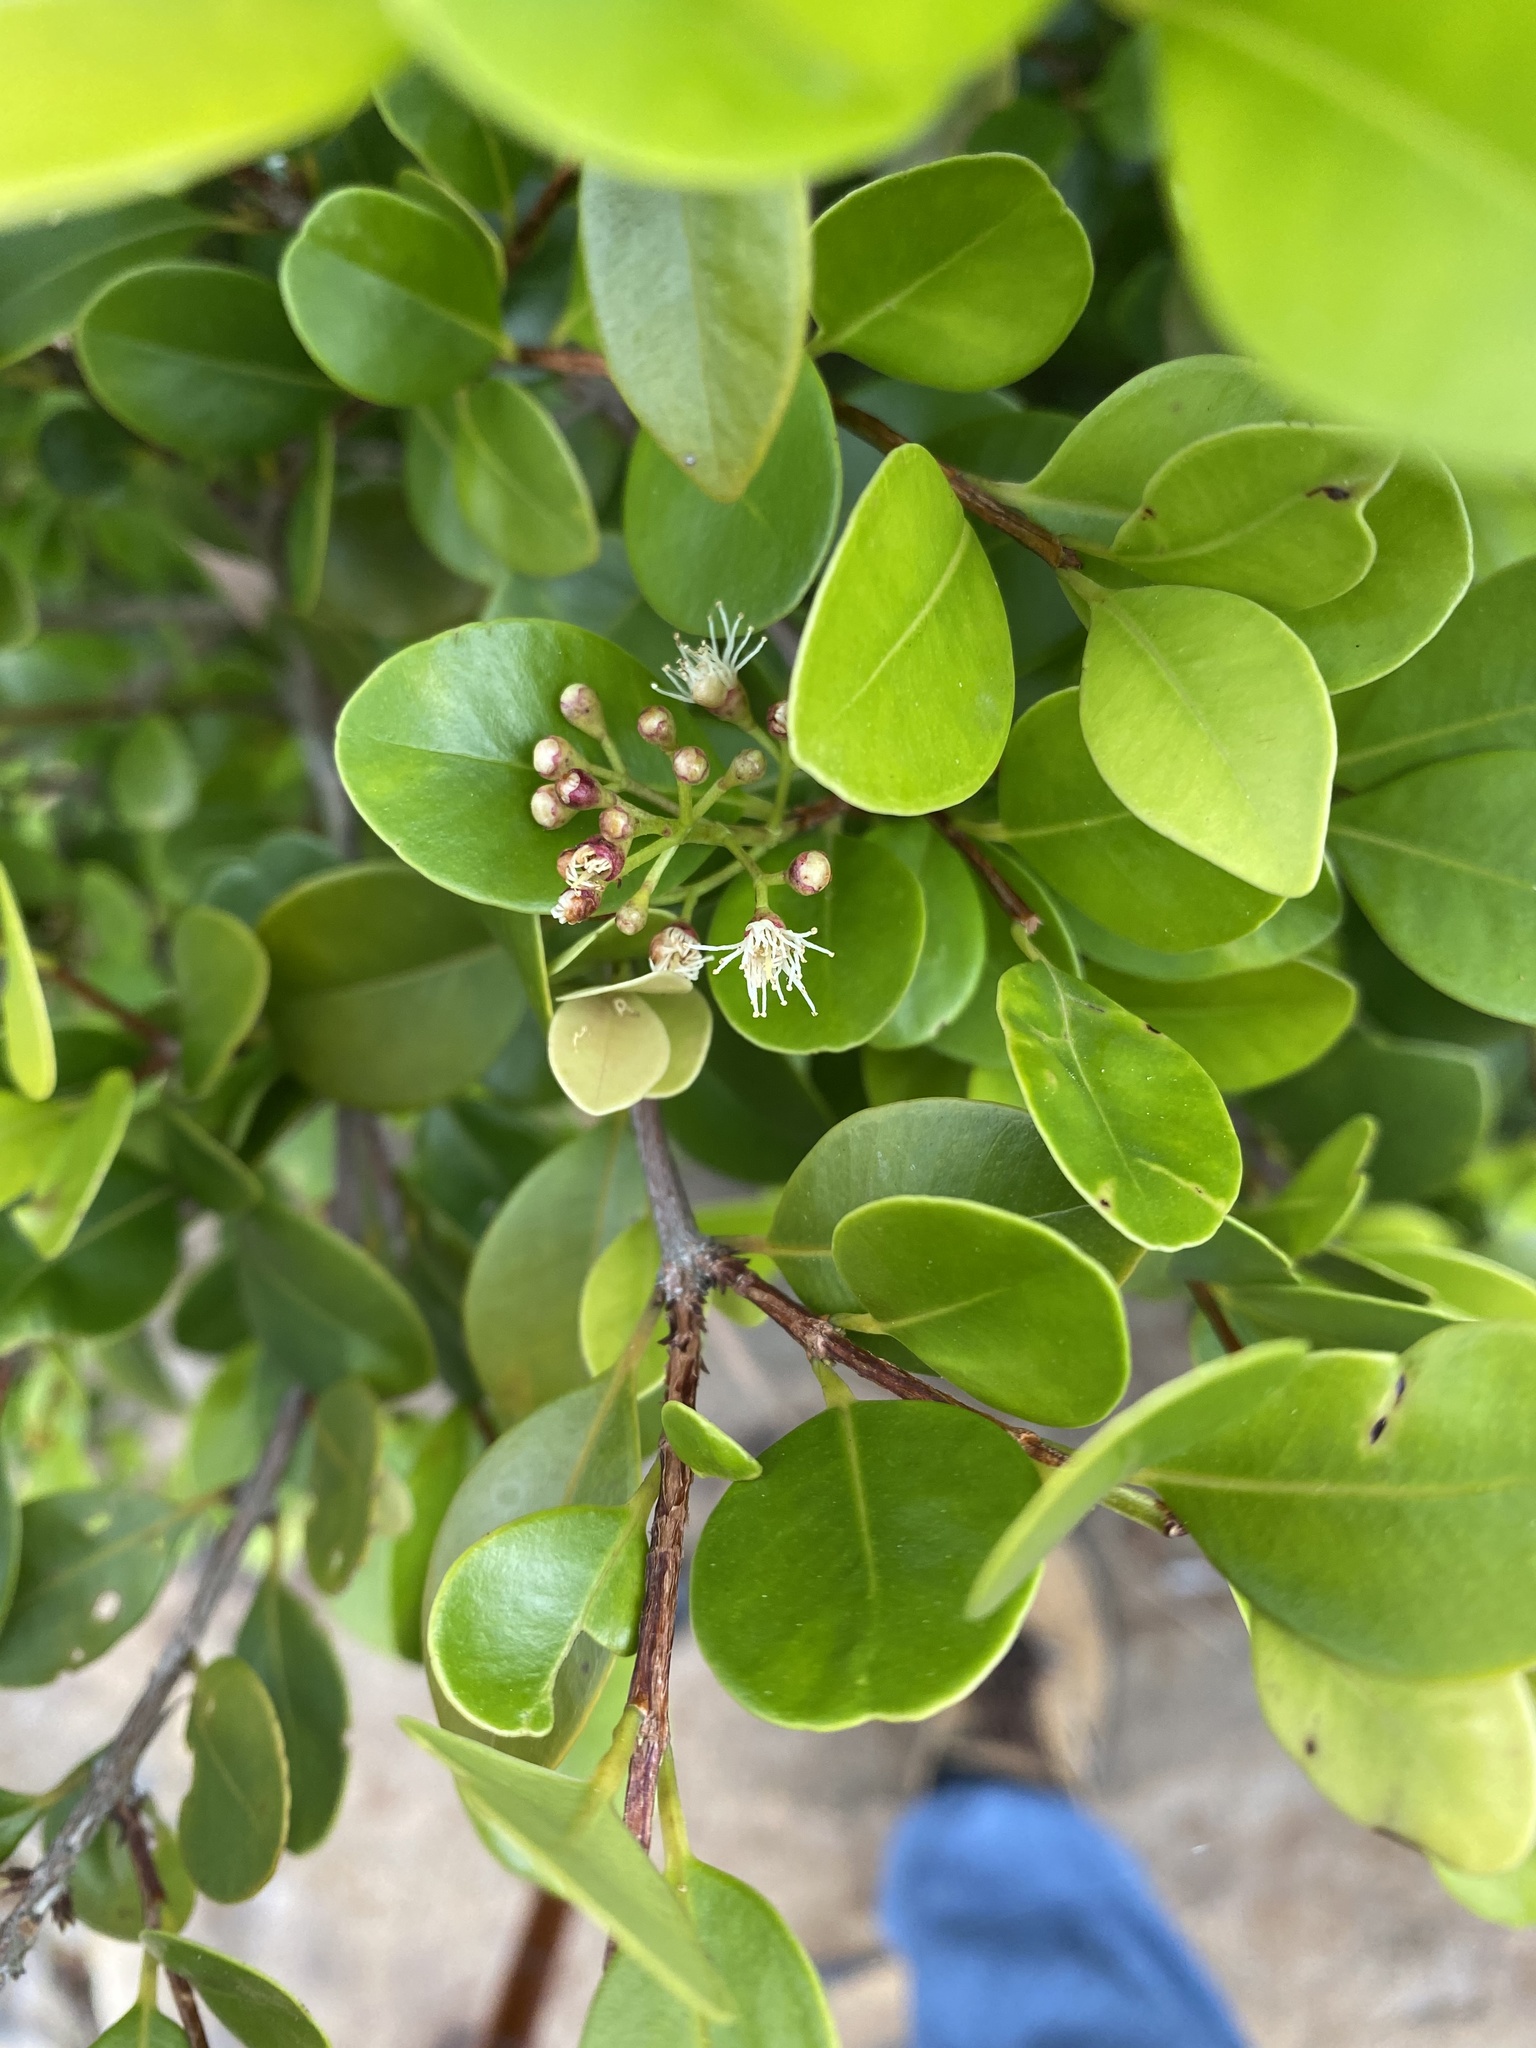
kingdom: Plantae
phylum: Tracheophyta
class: Magnoliopsida
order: Myrtales
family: Myrtaceae
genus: Syzygium
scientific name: Syzygium elliptifolium
